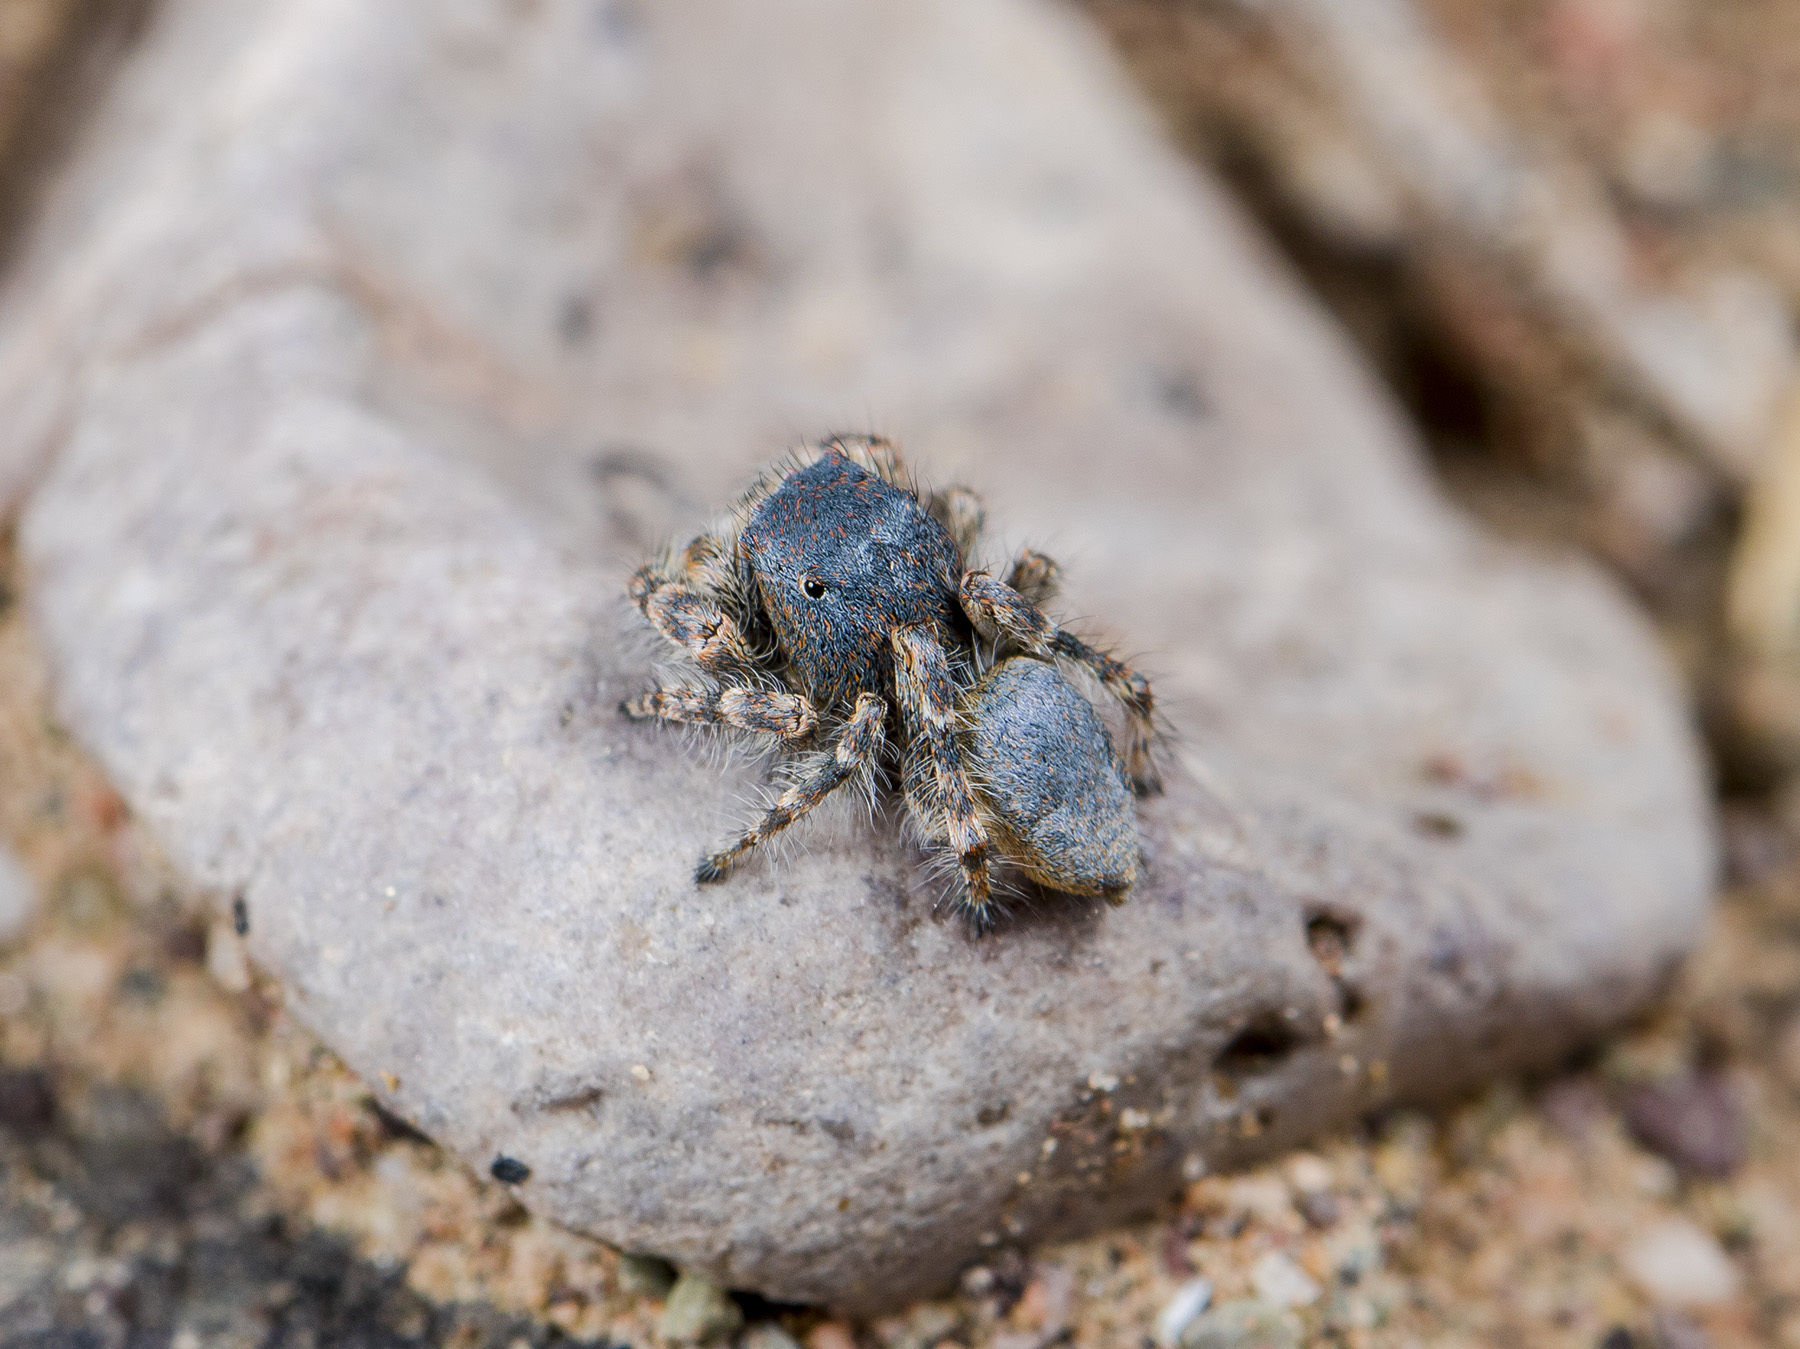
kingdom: Animalia
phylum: Arthropoda
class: Arachnida
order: Araneae
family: Salticidae
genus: Yllenus
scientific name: Yllenus zyuzini
